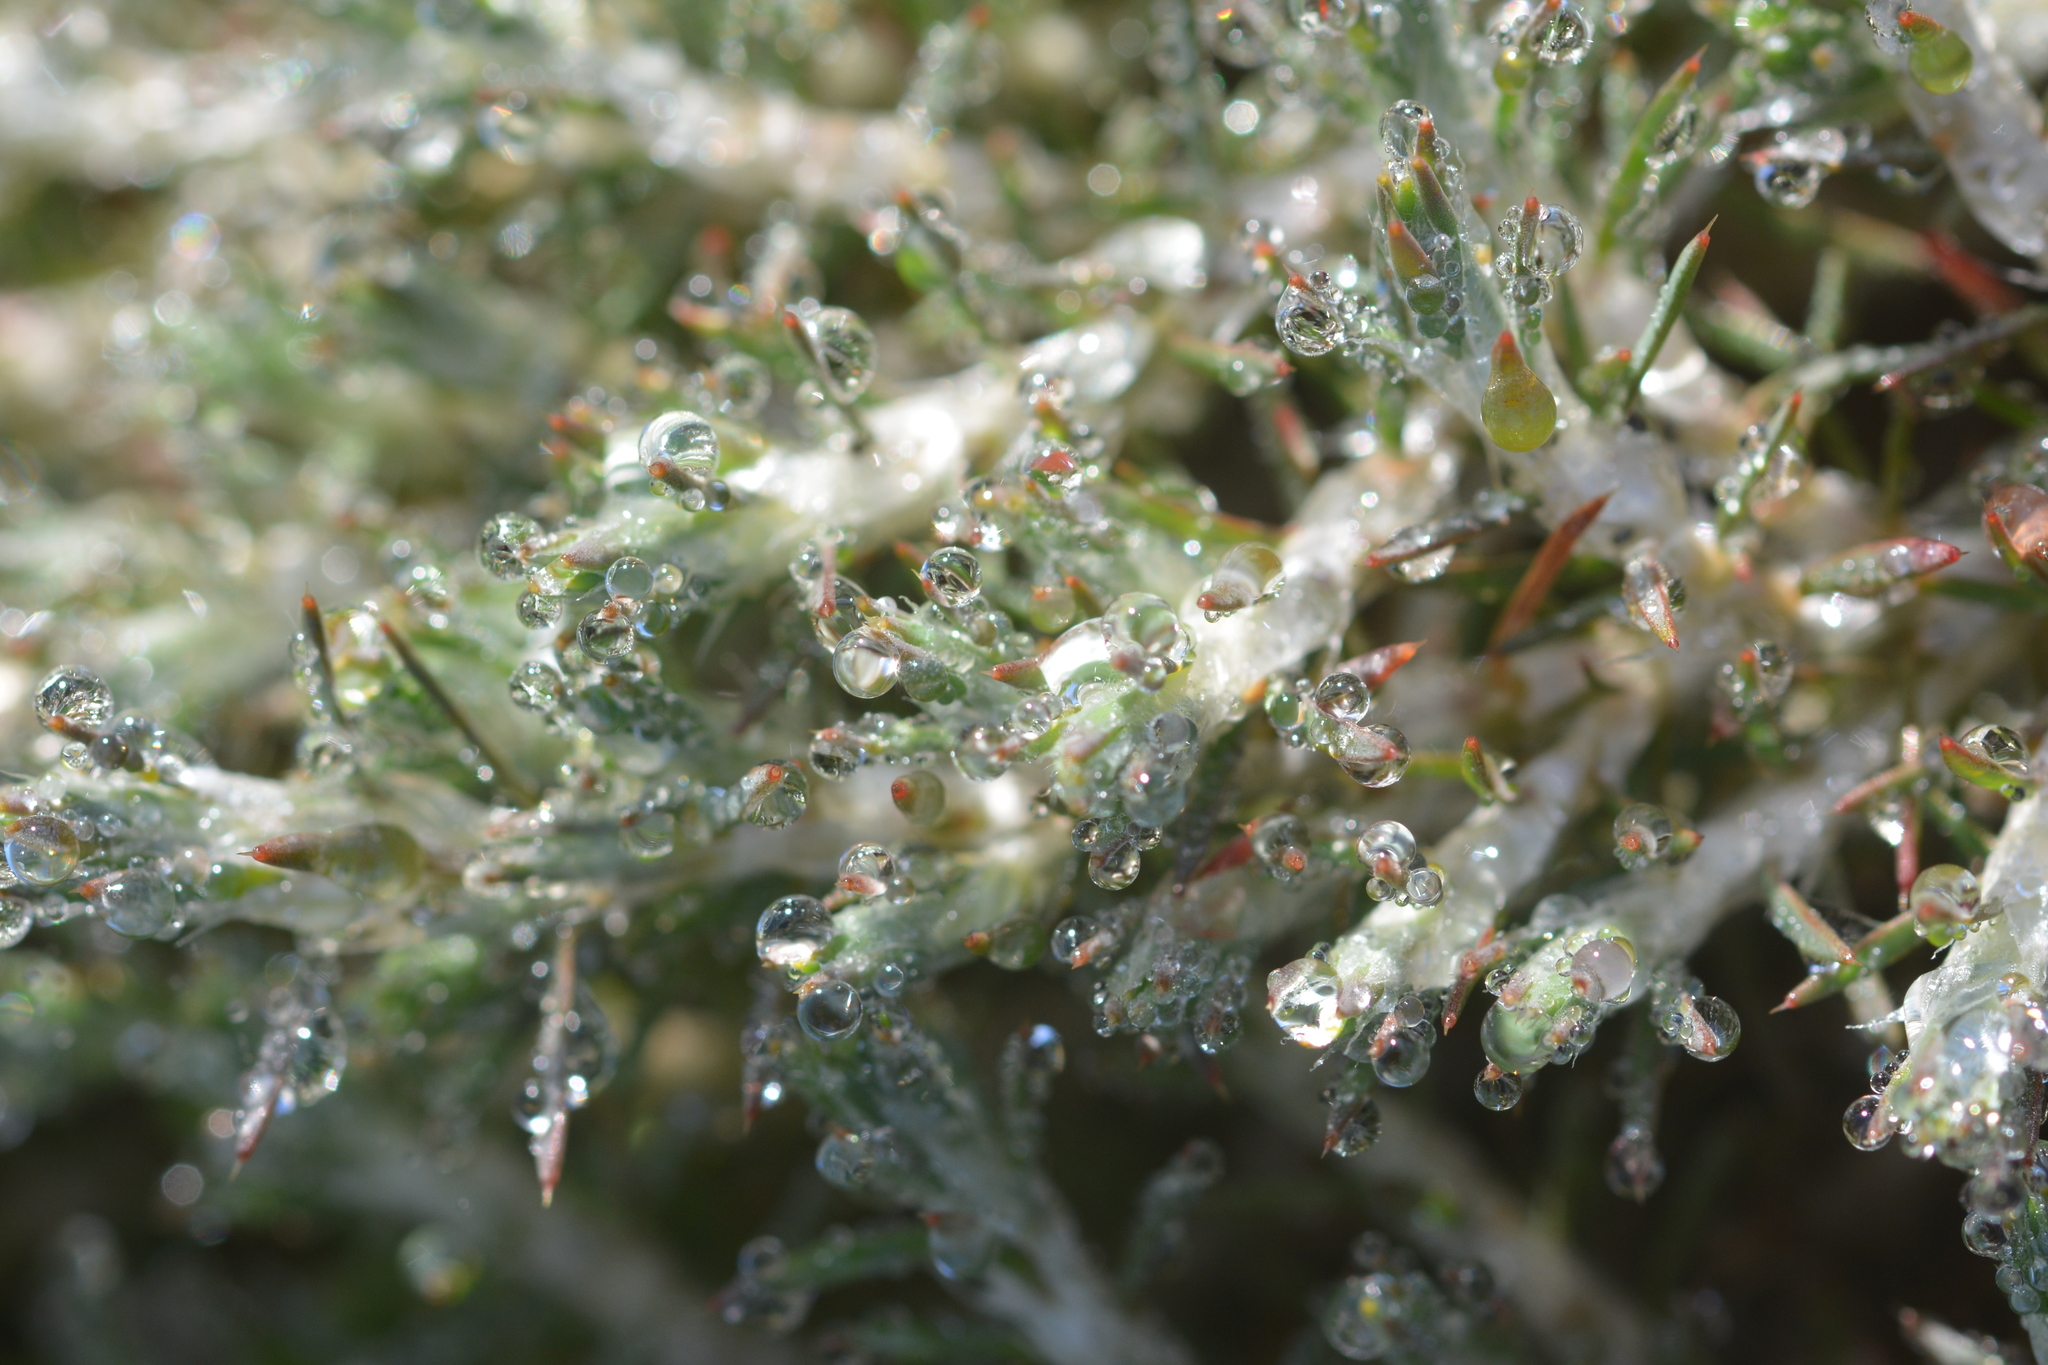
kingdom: Plantae
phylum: Tracheophyta
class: Magnoliopsida
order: Caryophyllales
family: Caryophyllaceae
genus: Cardionema
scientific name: Cardionema ramosissima
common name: Sandcarpet
